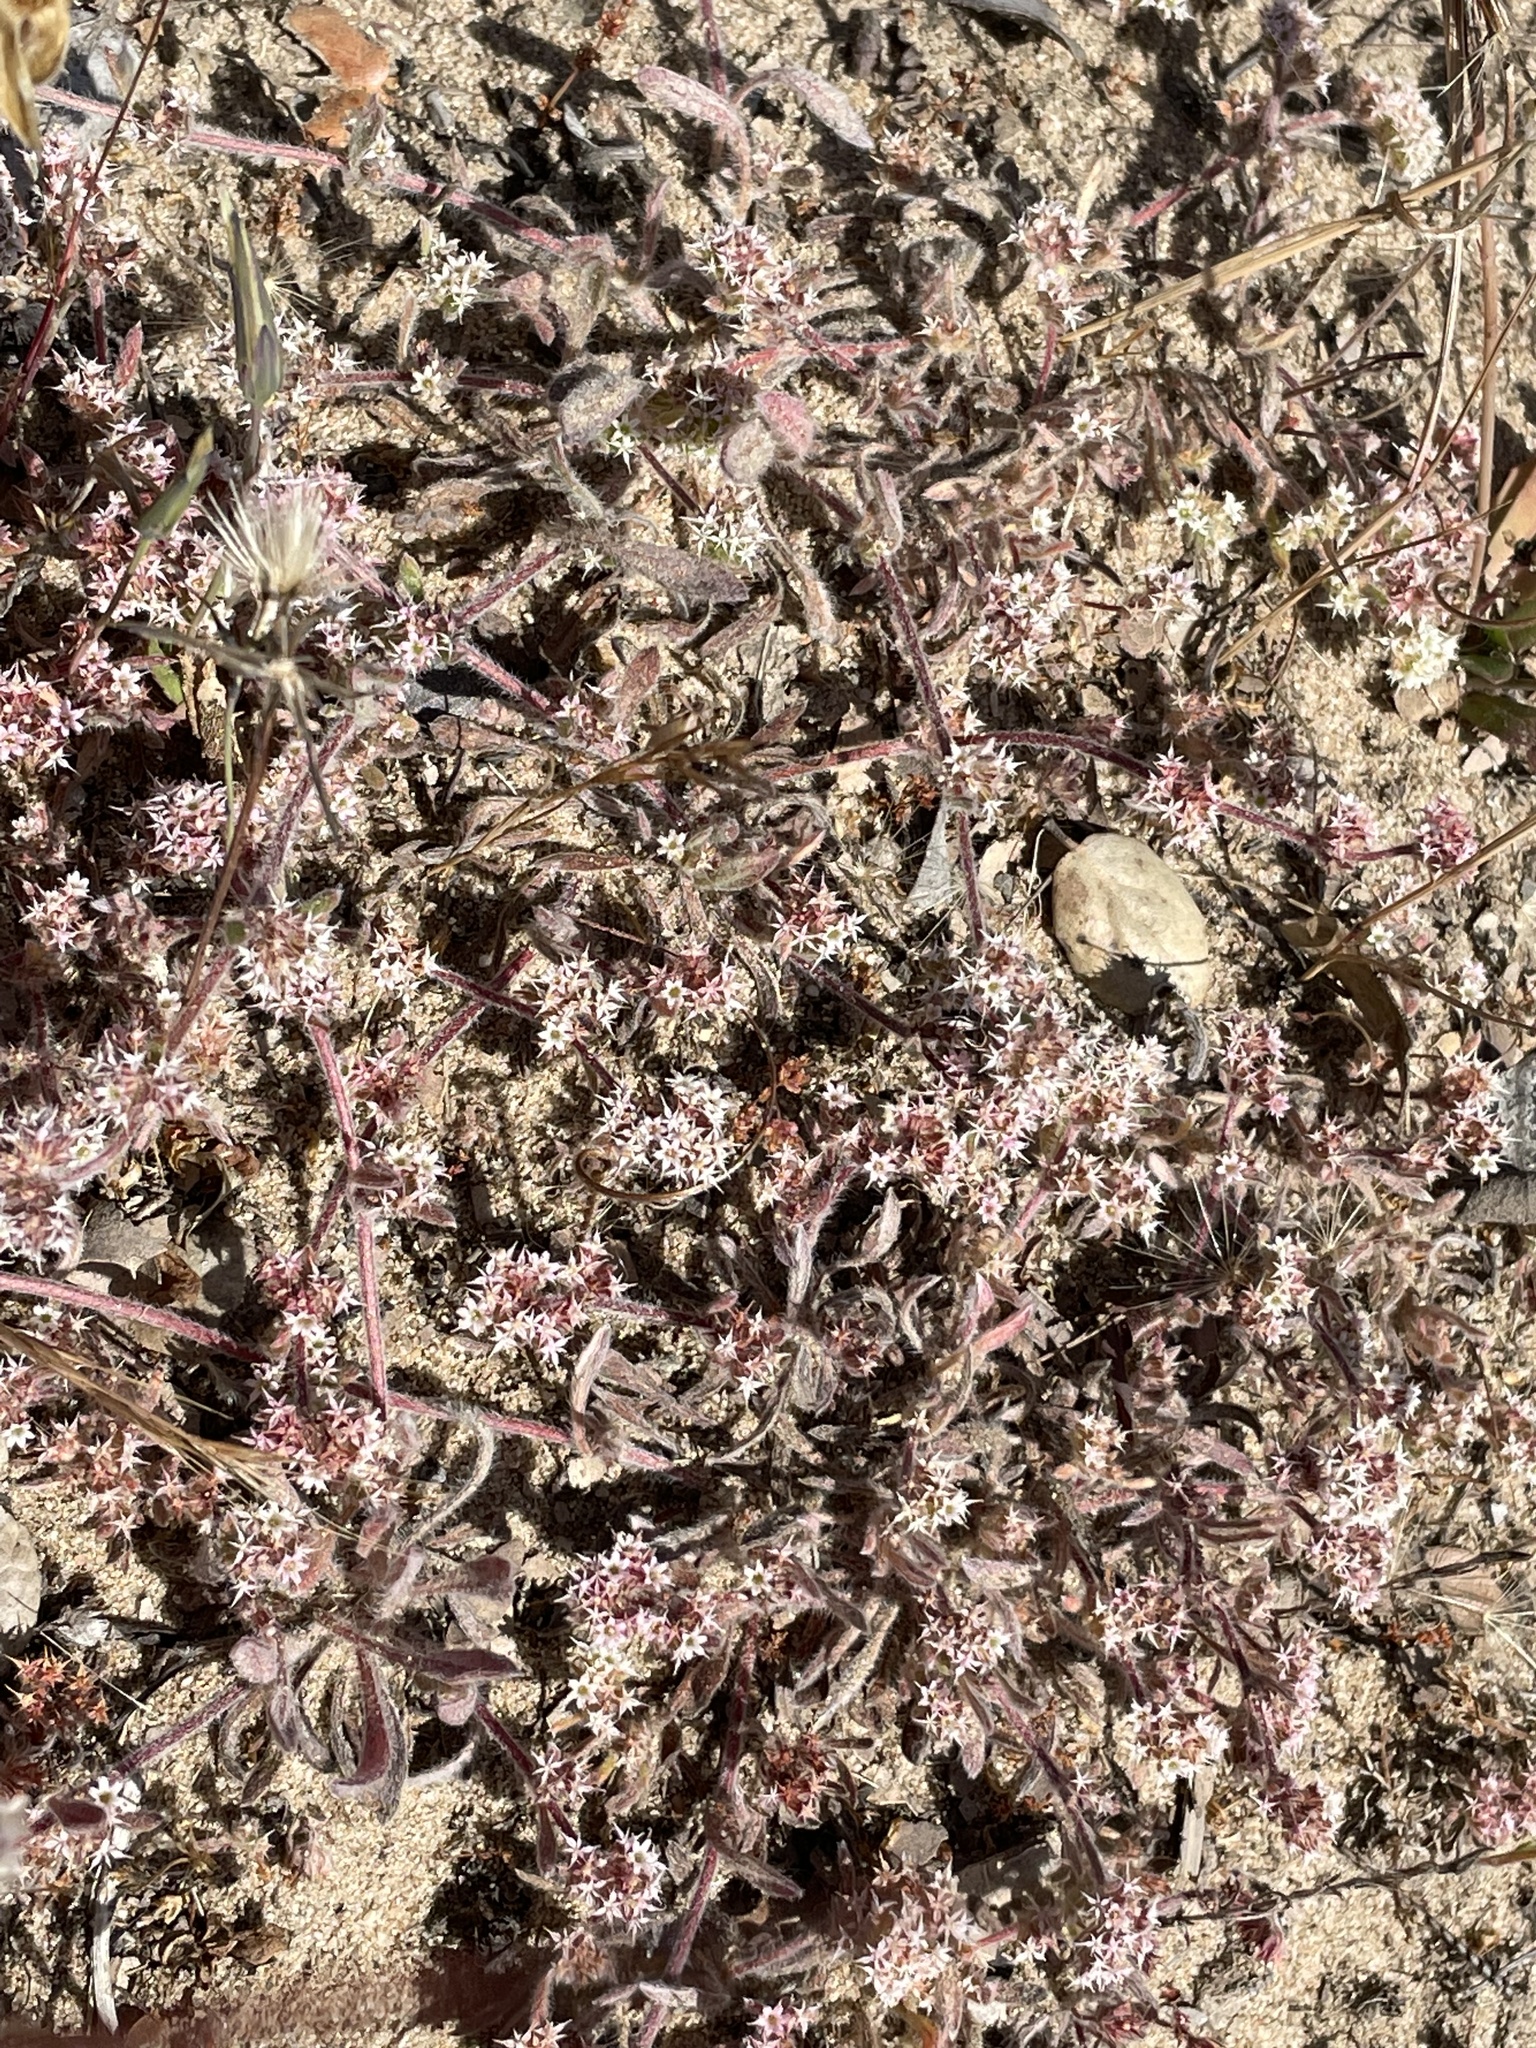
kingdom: Plantae
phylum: Tracheophyta
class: Magnoliopsida
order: Caryophyllales
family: Polygonaceae
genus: Chorizanthe
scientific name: Chorizanthe pungens
